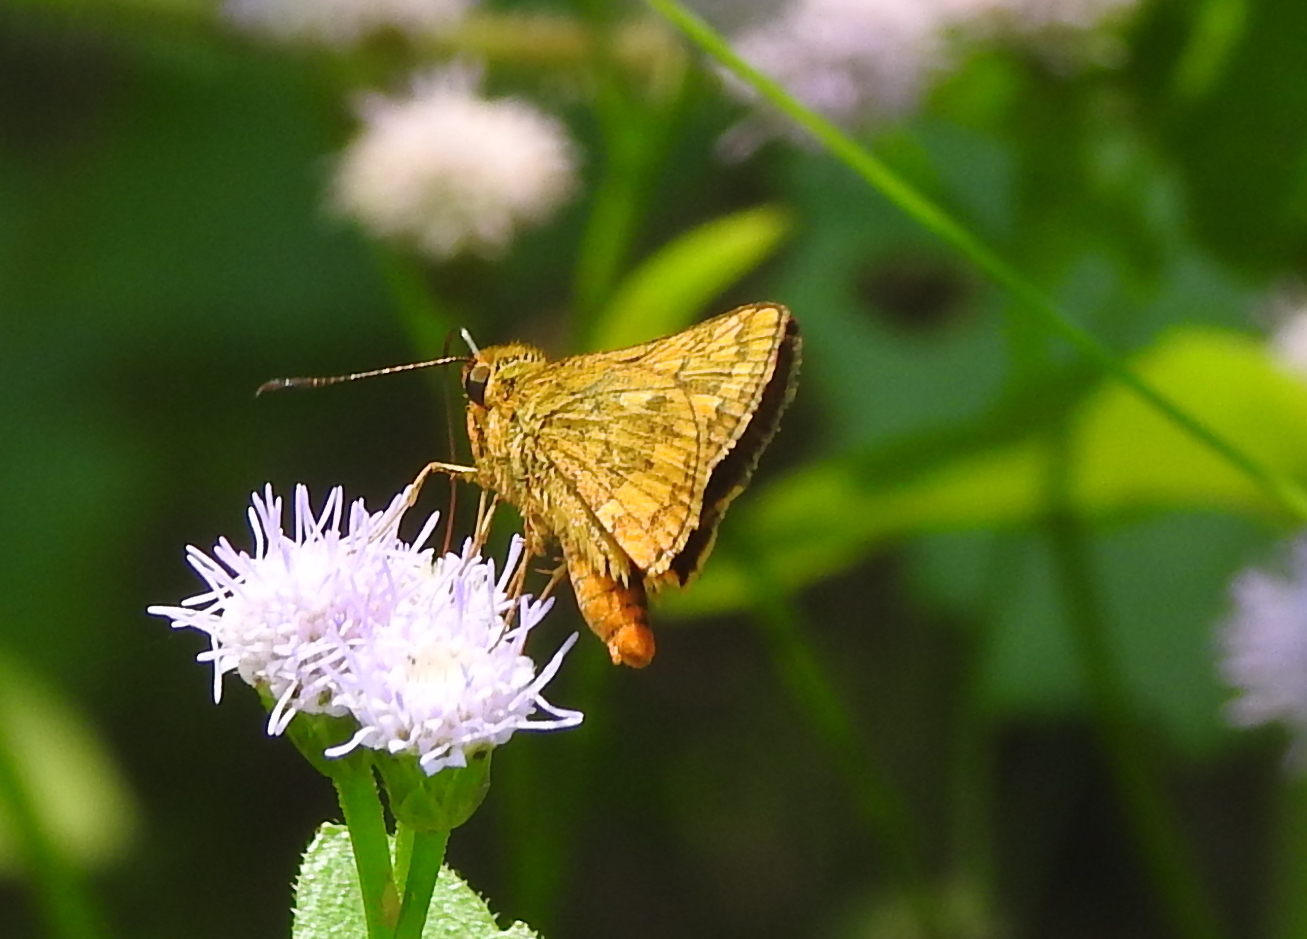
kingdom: Animalia
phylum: Arthropoda
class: Insecta
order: Lepidoptera
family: Hesperiidae
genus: Potanthus
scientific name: Potanthus omaha
